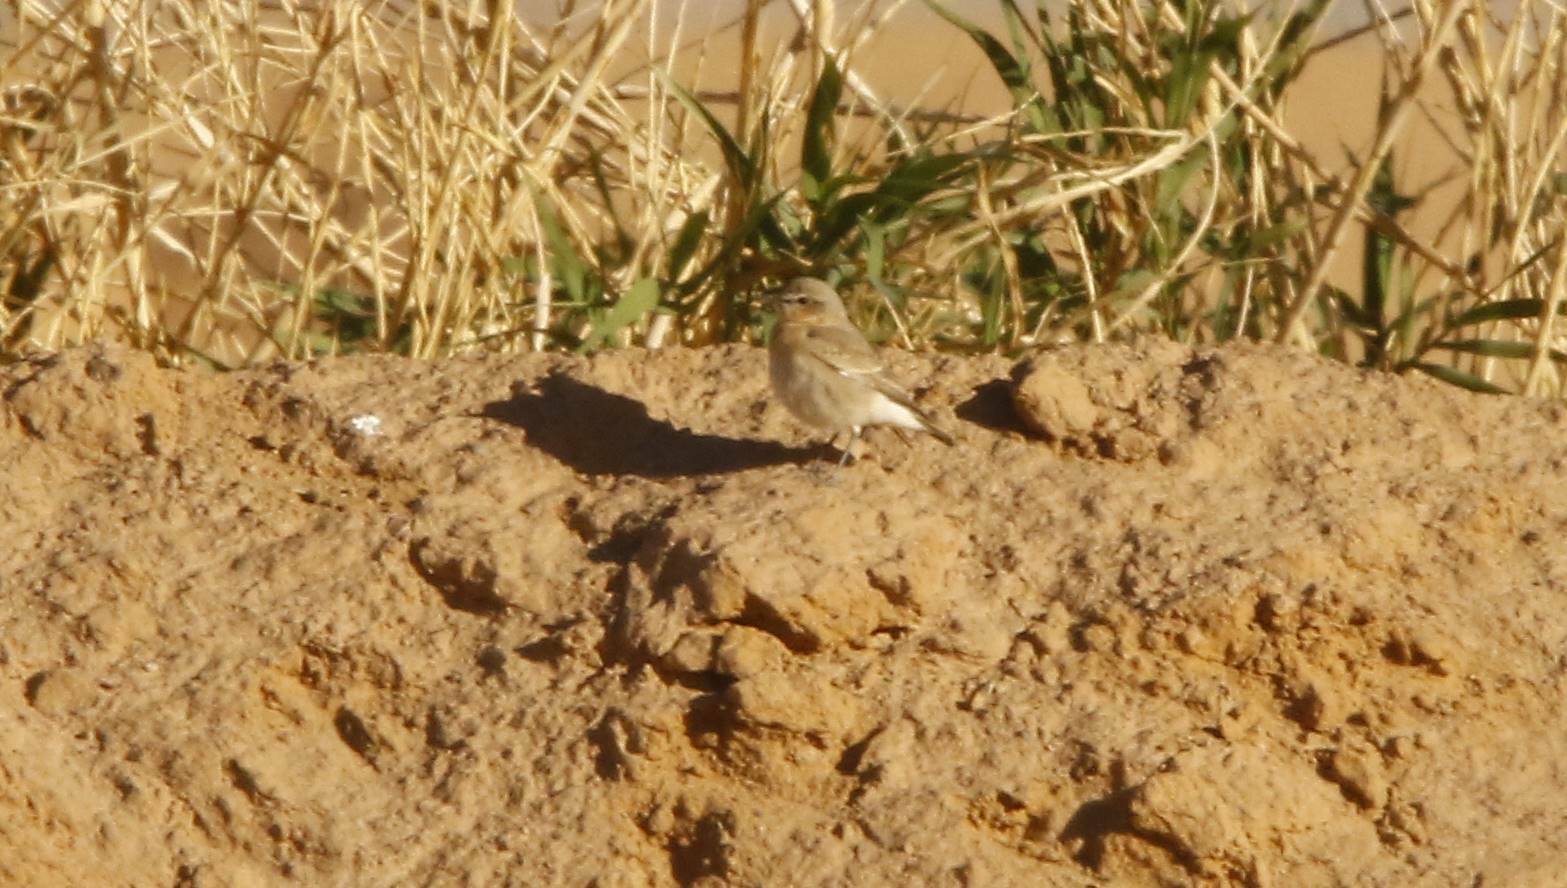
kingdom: Animalia
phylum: Chordata
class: Aves
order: Passeriformes
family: Muscicapidae
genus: Oenanthe
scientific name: Oenanthe isabellina
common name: Isabelline wheatear
